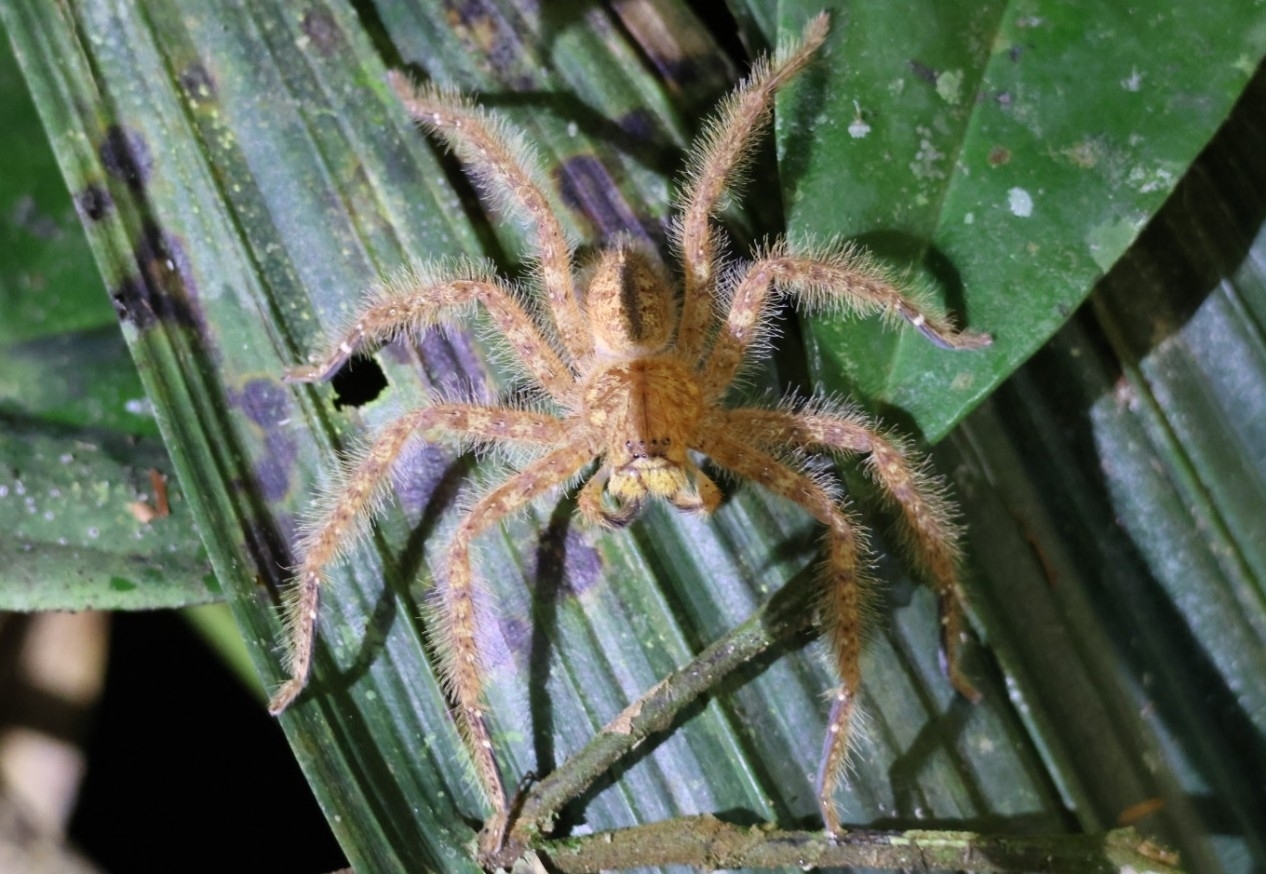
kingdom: Animalia
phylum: Arthropoda
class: Arachnida
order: Araneae
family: Sparassidae
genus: Heteropoda
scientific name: Heteropoda davidbowie
